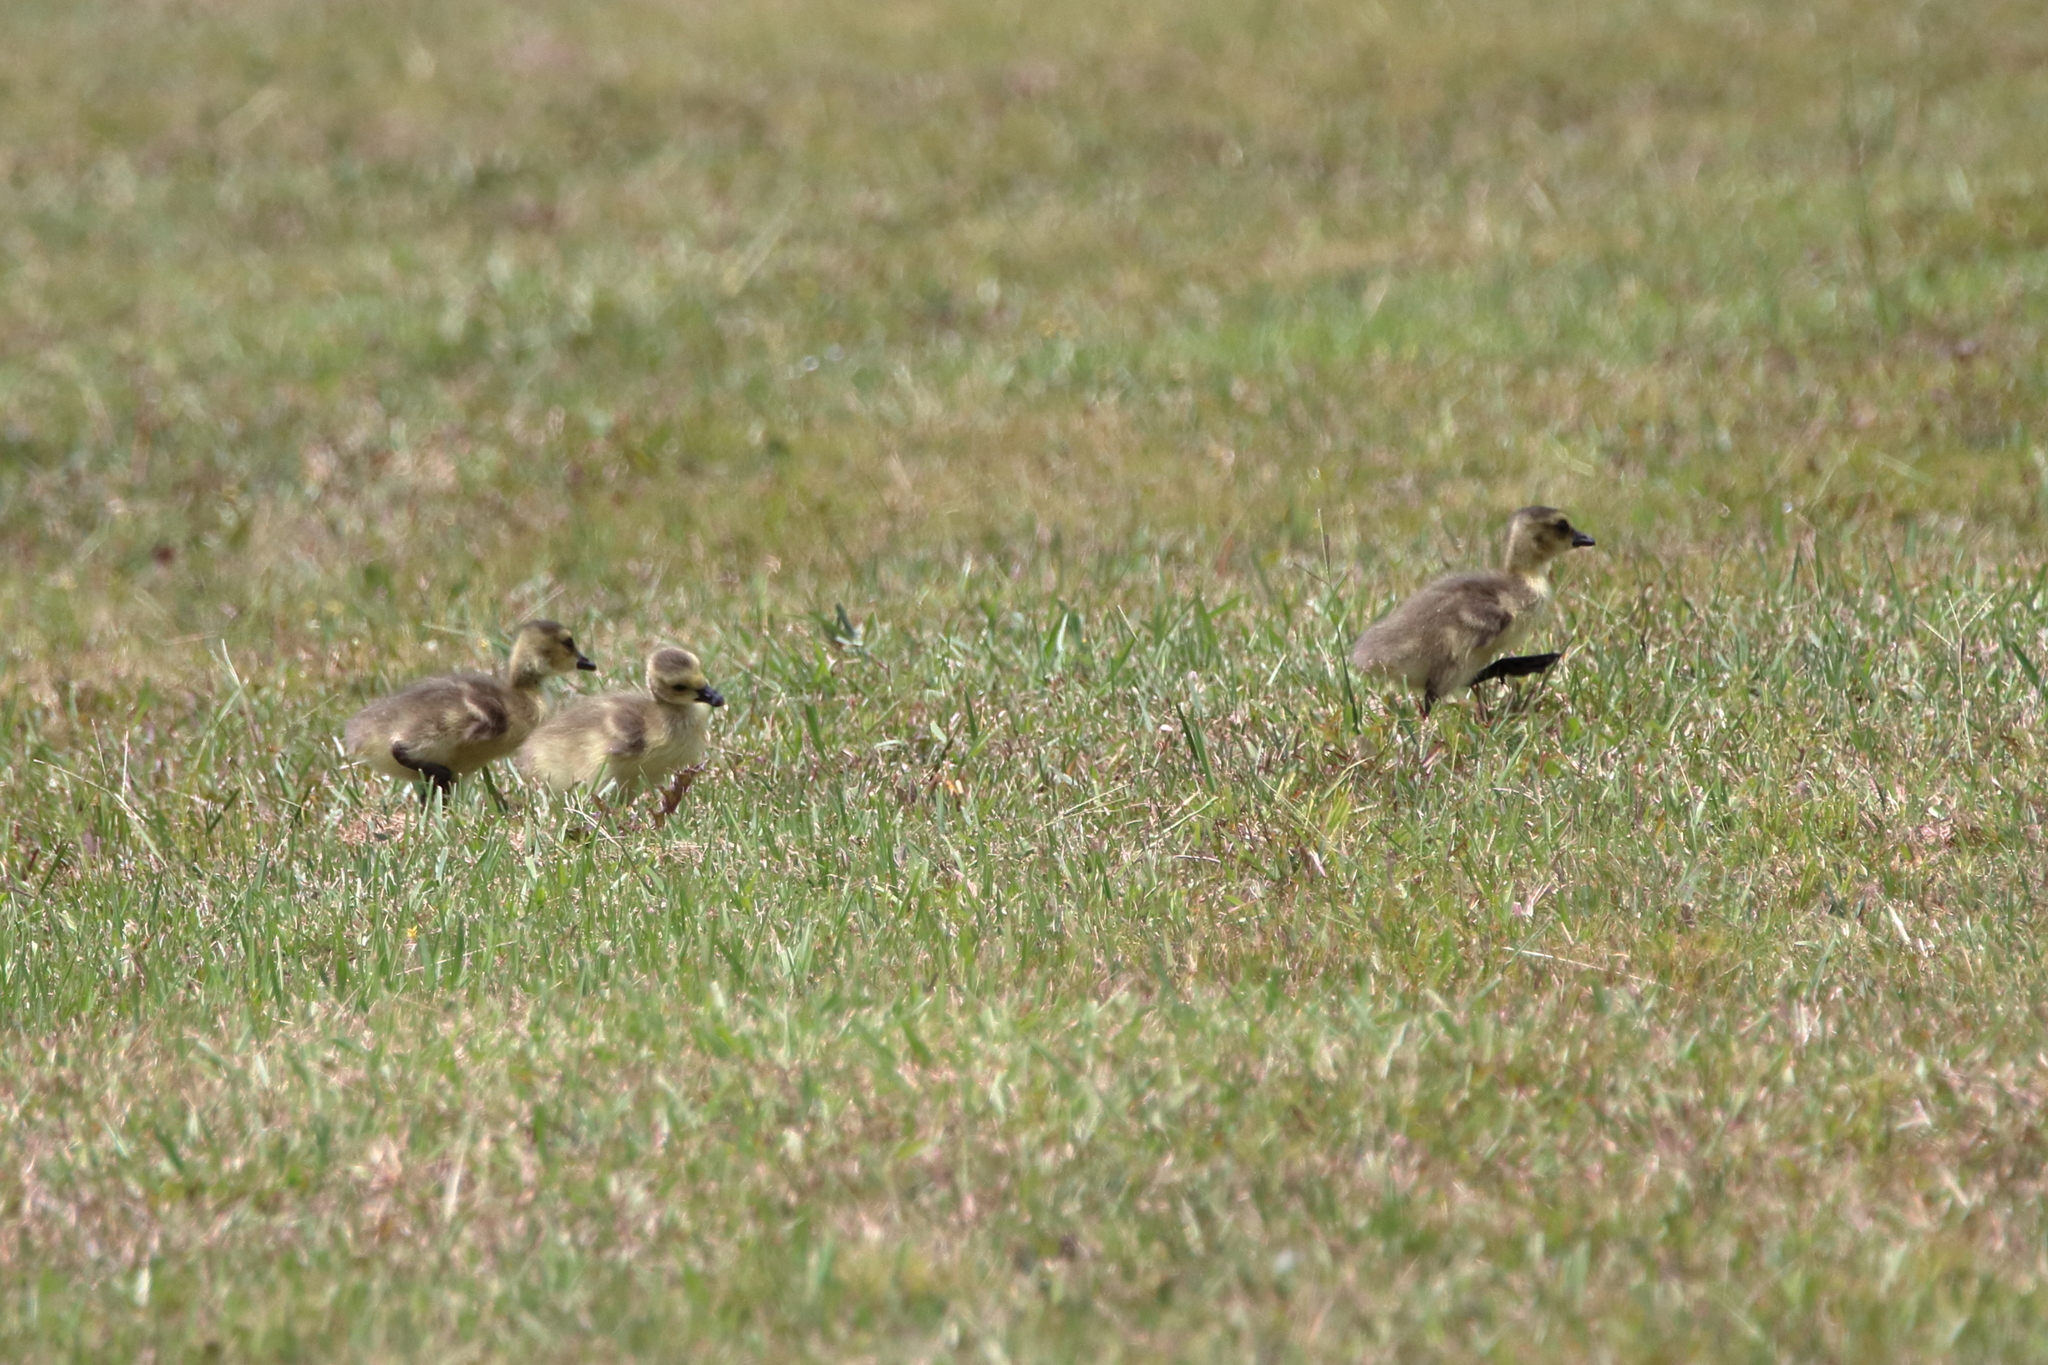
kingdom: Animalia
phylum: Chordata
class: Aves
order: Anseriformes
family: Anatidae
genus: Branta
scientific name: Branta canadensis
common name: Canada goose
